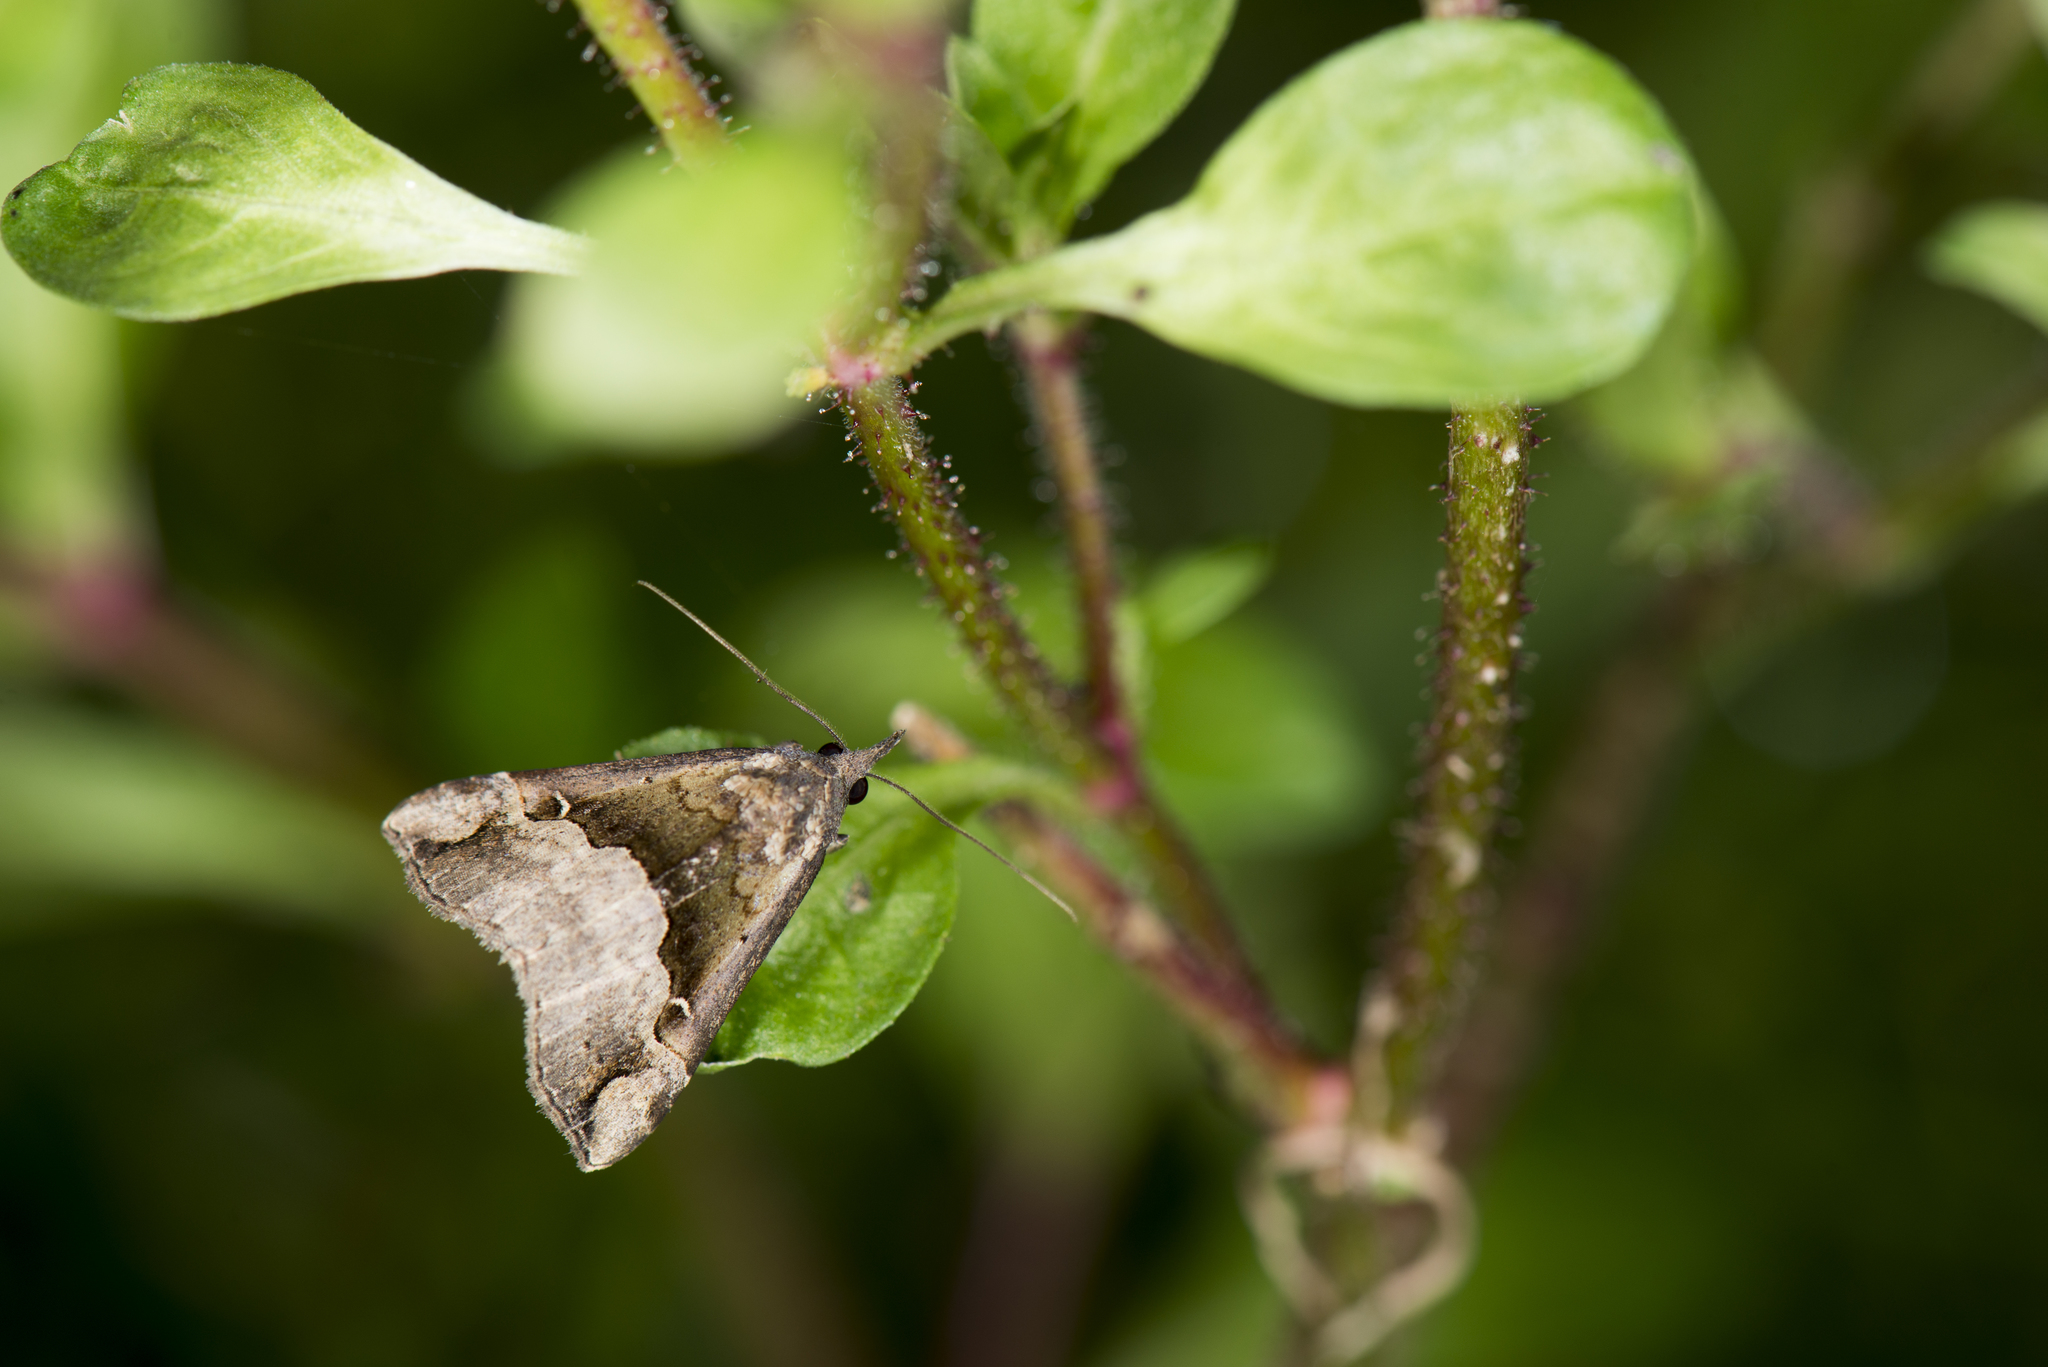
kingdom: Animalia
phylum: Arthropoda
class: Insecta
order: Lepidoptera
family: Erebidae
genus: Hypena
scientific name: Hypena indicatalis
